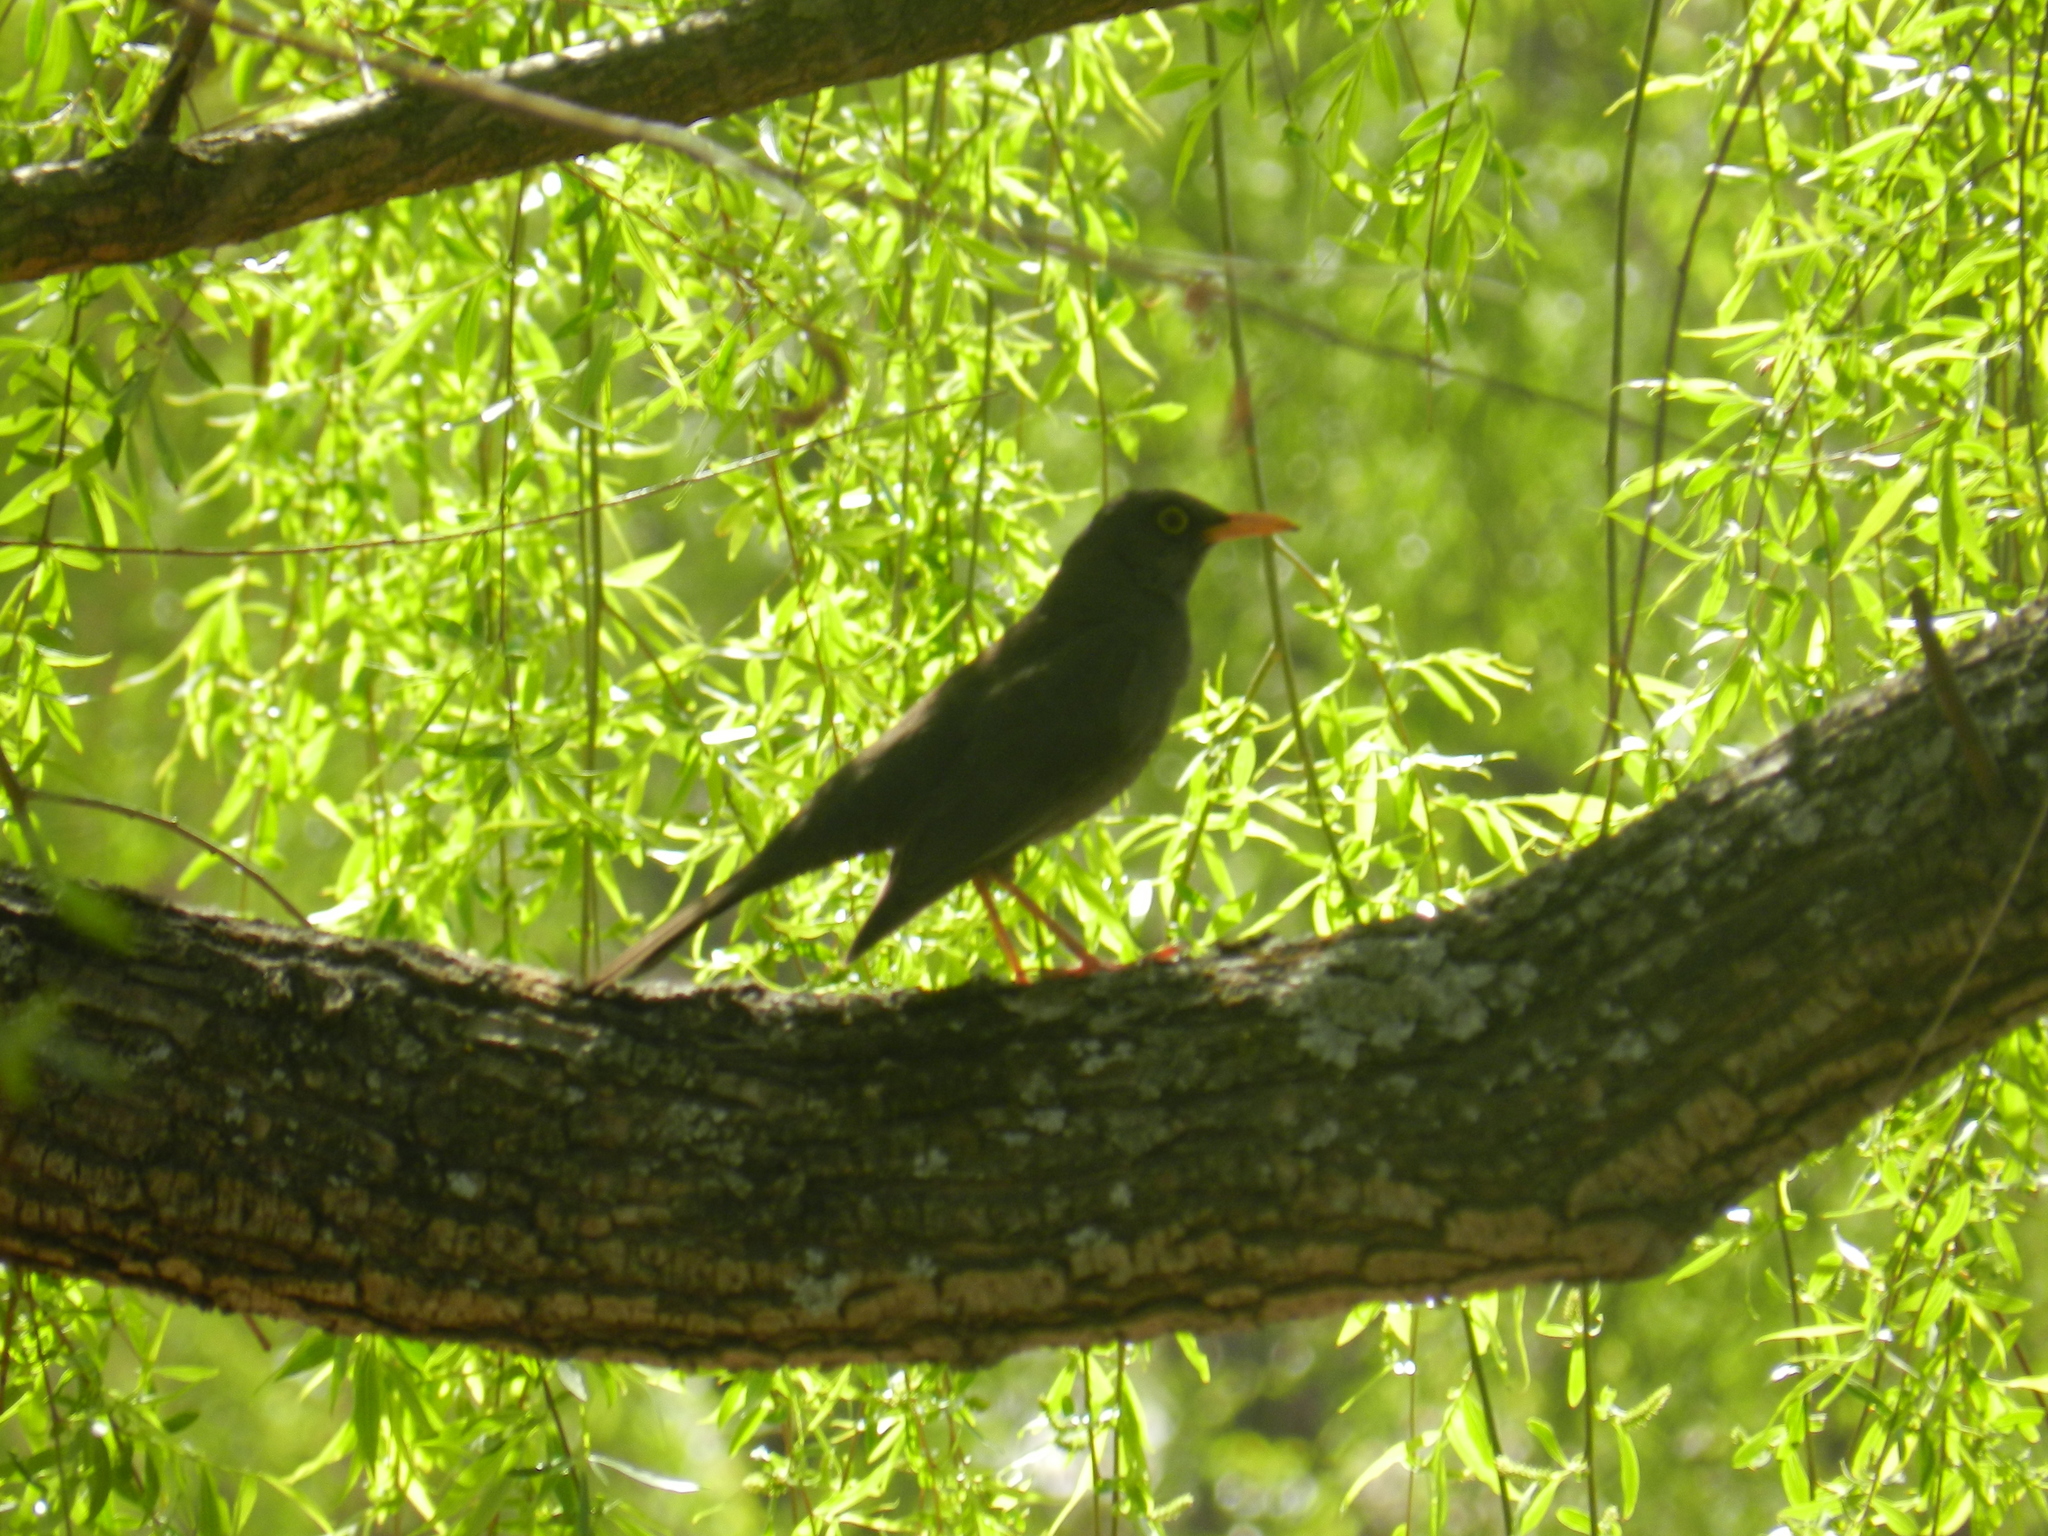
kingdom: Animalia
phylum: Chordata
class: Aves
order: Passeriformes
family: Turdidae
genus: Turdus
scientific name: Turdus chiguanco
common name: Chiguanco thrush
